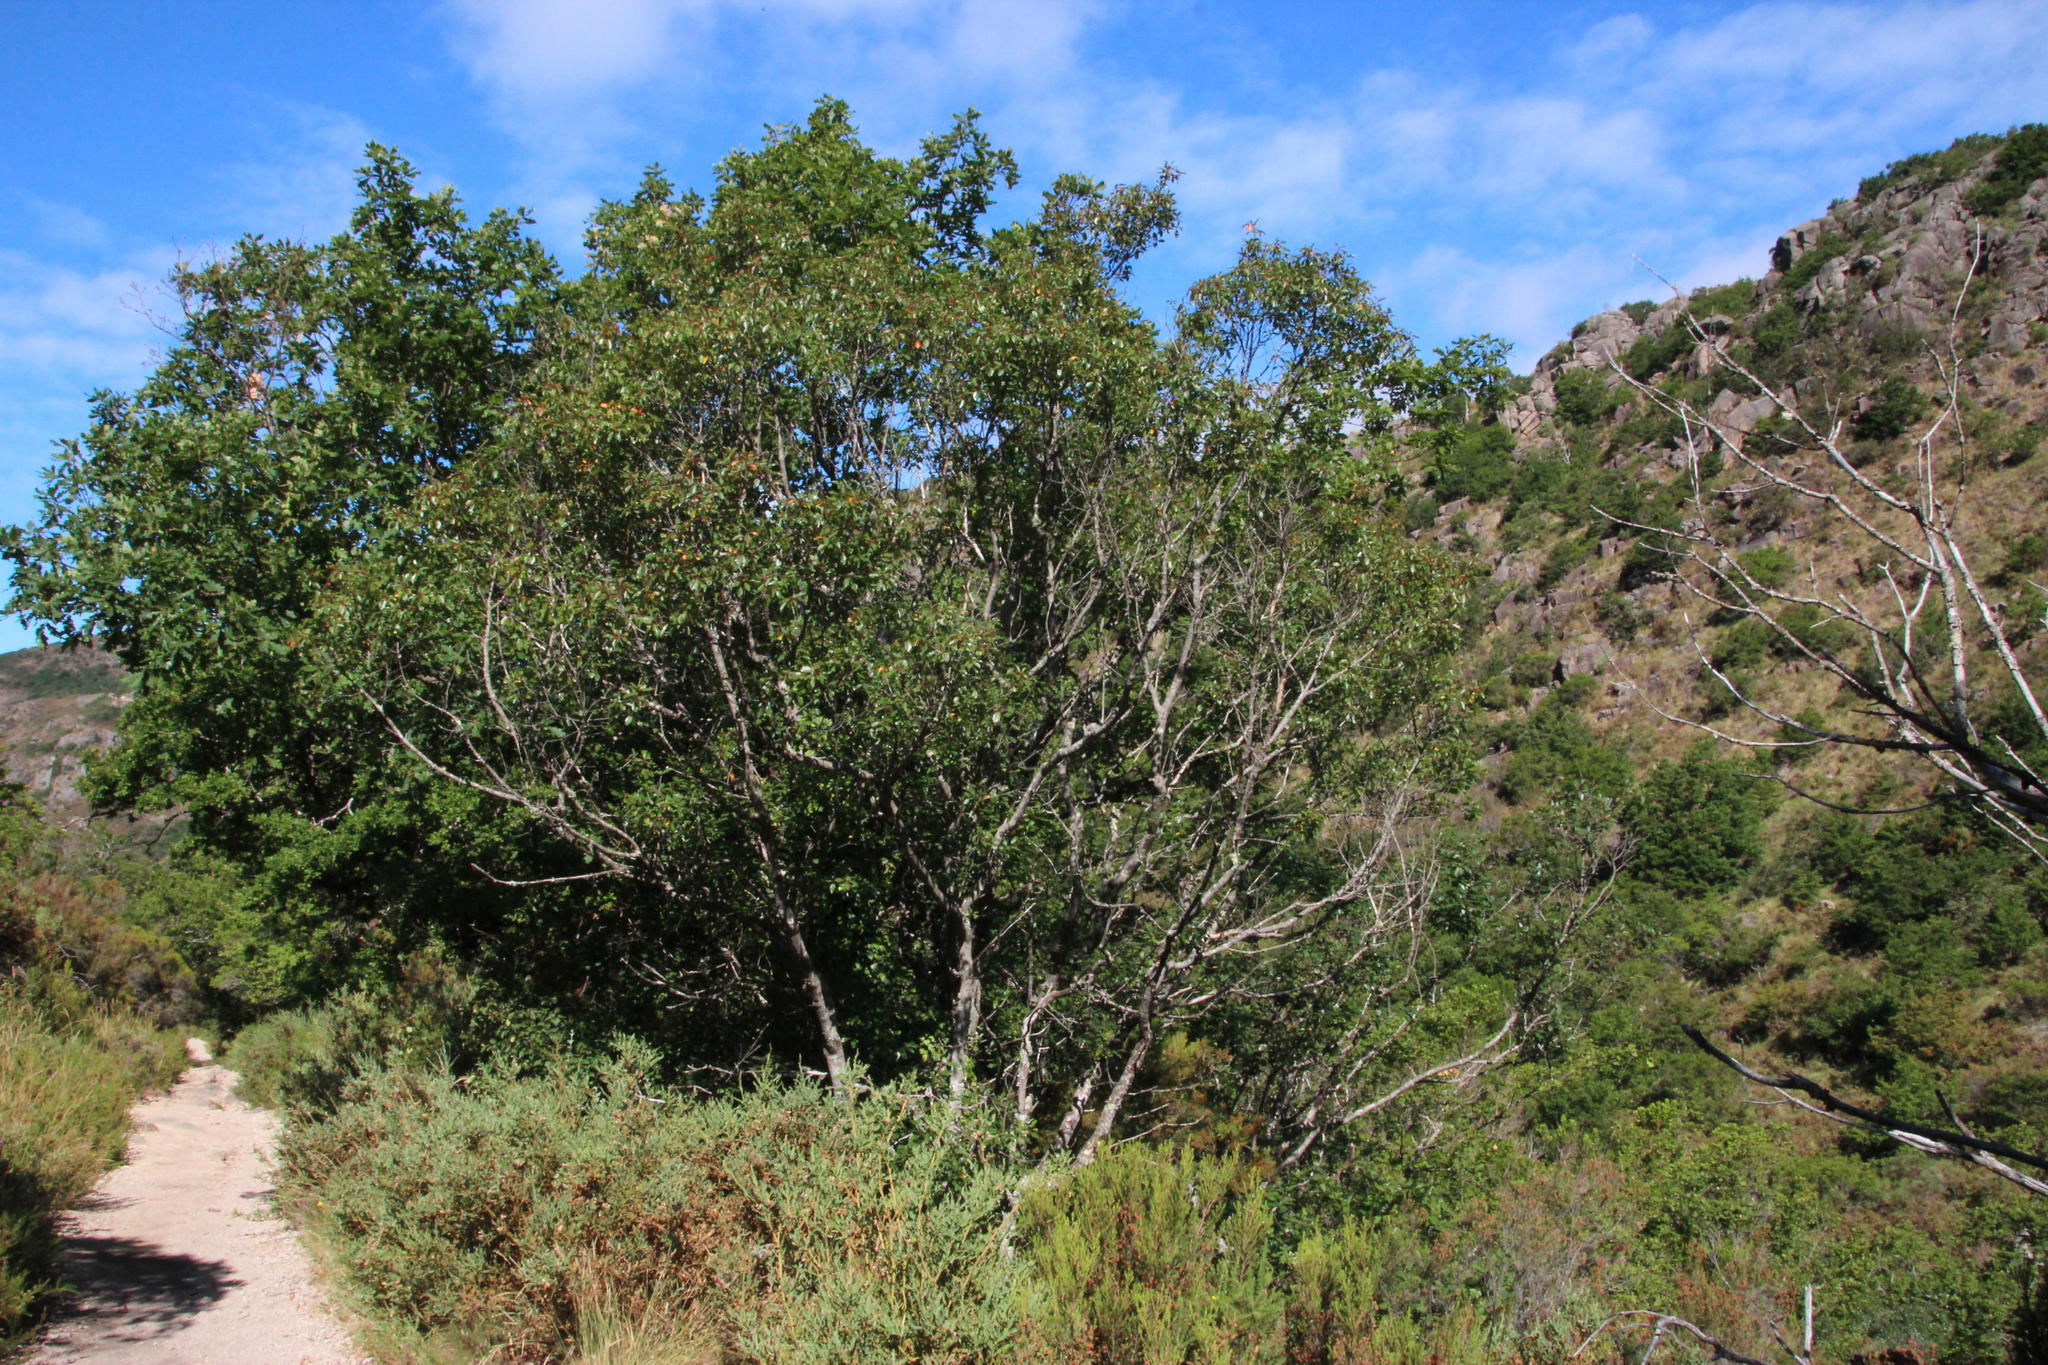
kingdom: Plantae
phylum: Tracheophyta
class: Magnoliopsida
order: Rosales
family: Rhamnaceae
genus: Frangula
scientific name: Frangula alnus
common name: Alder buckthorn
